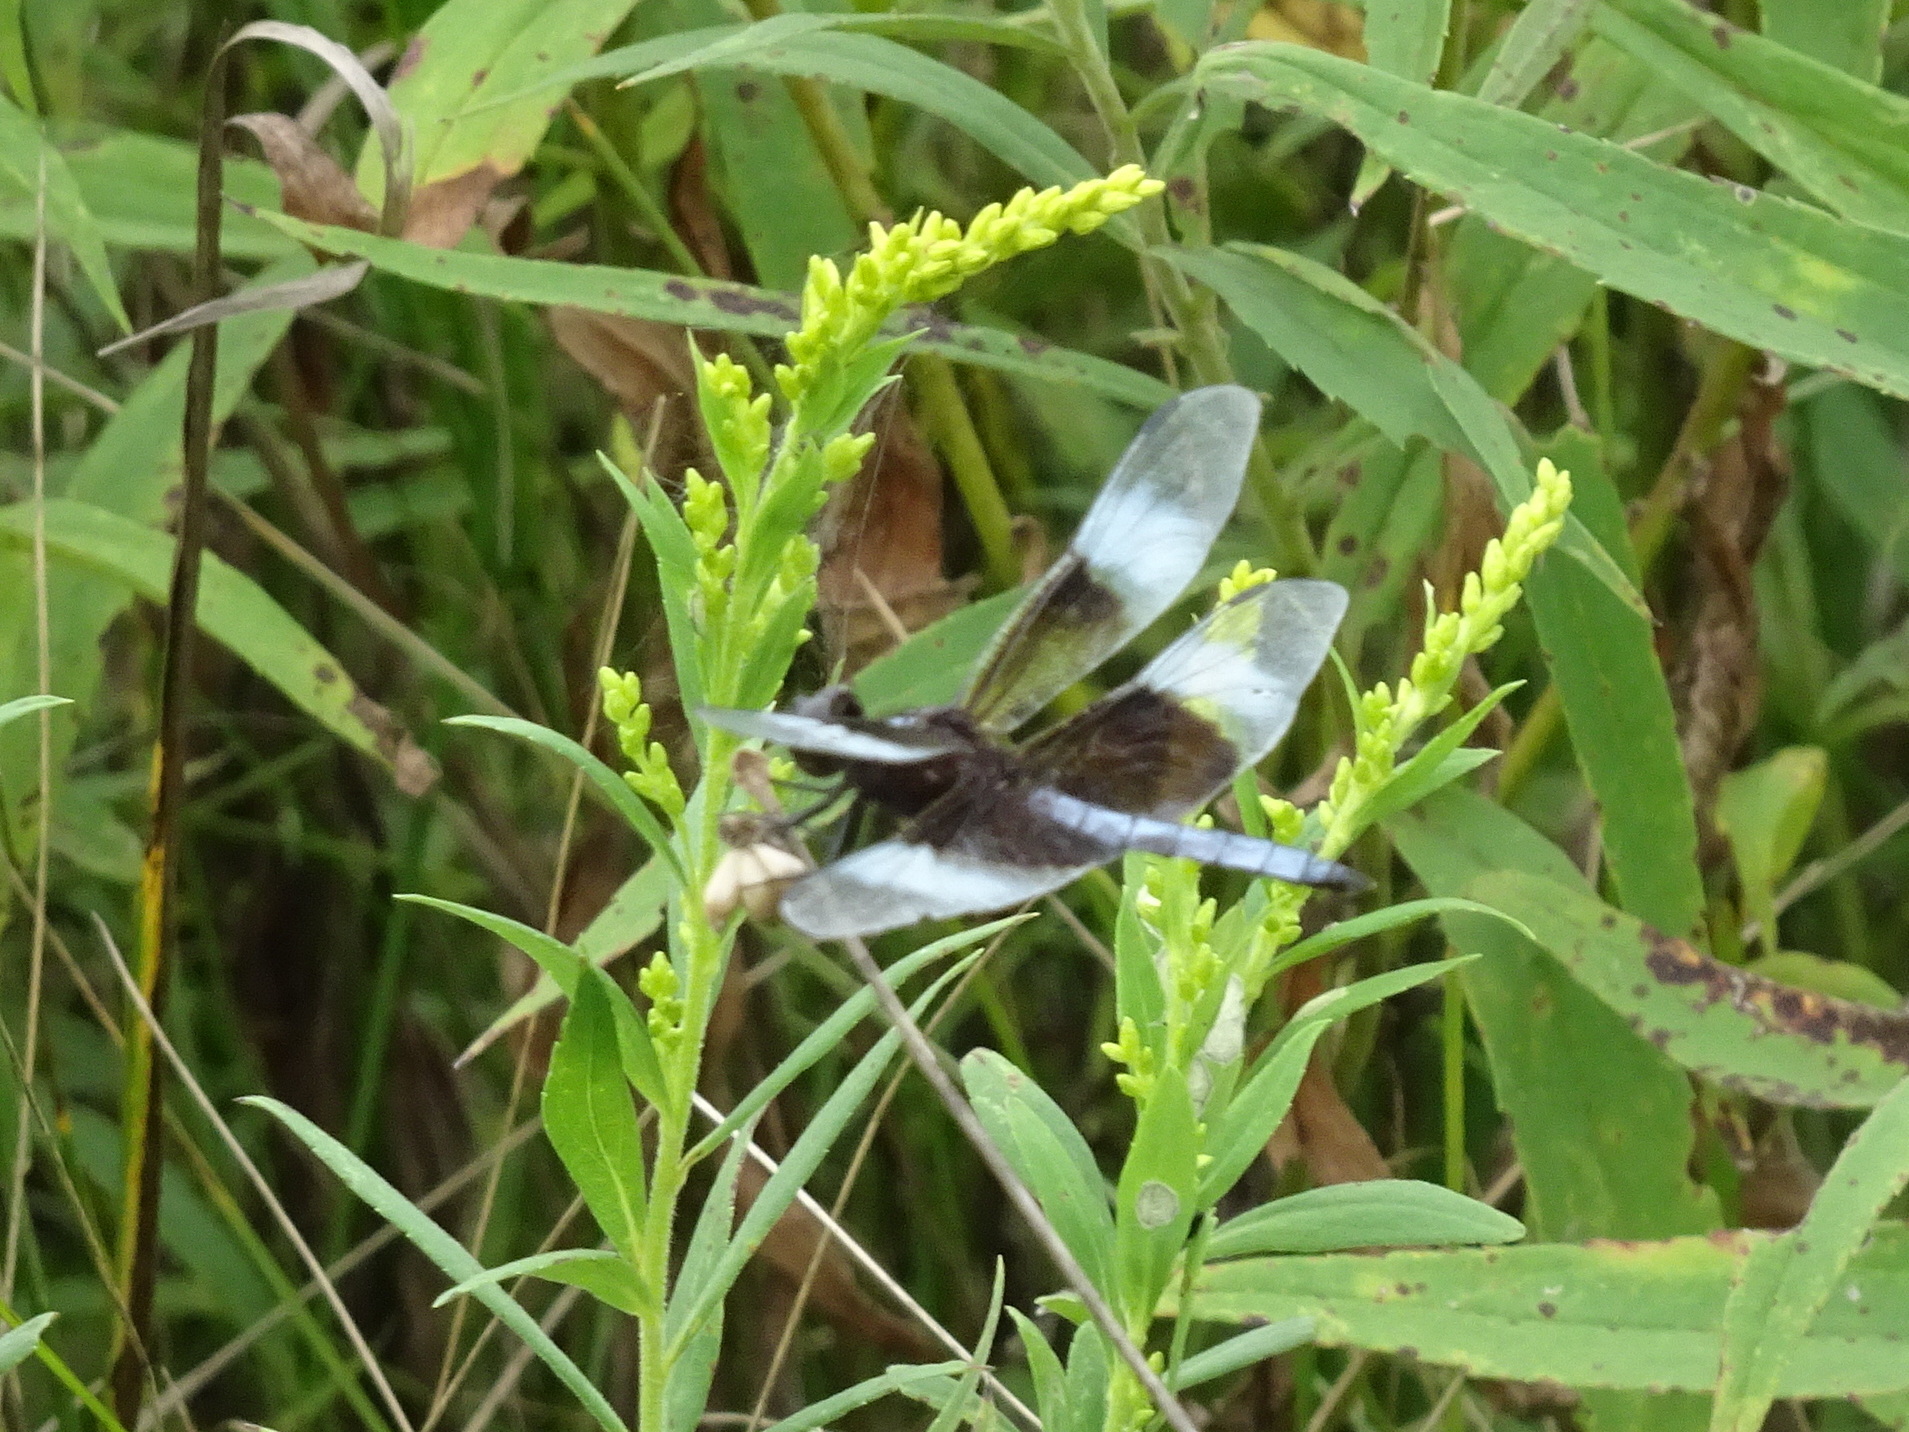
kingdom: Animalia
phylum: Arthropoda
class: Insecta
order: Odonata
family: Libellulidae
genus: Libellula
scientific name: Libellula luctuosa
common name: Widow skimmer
